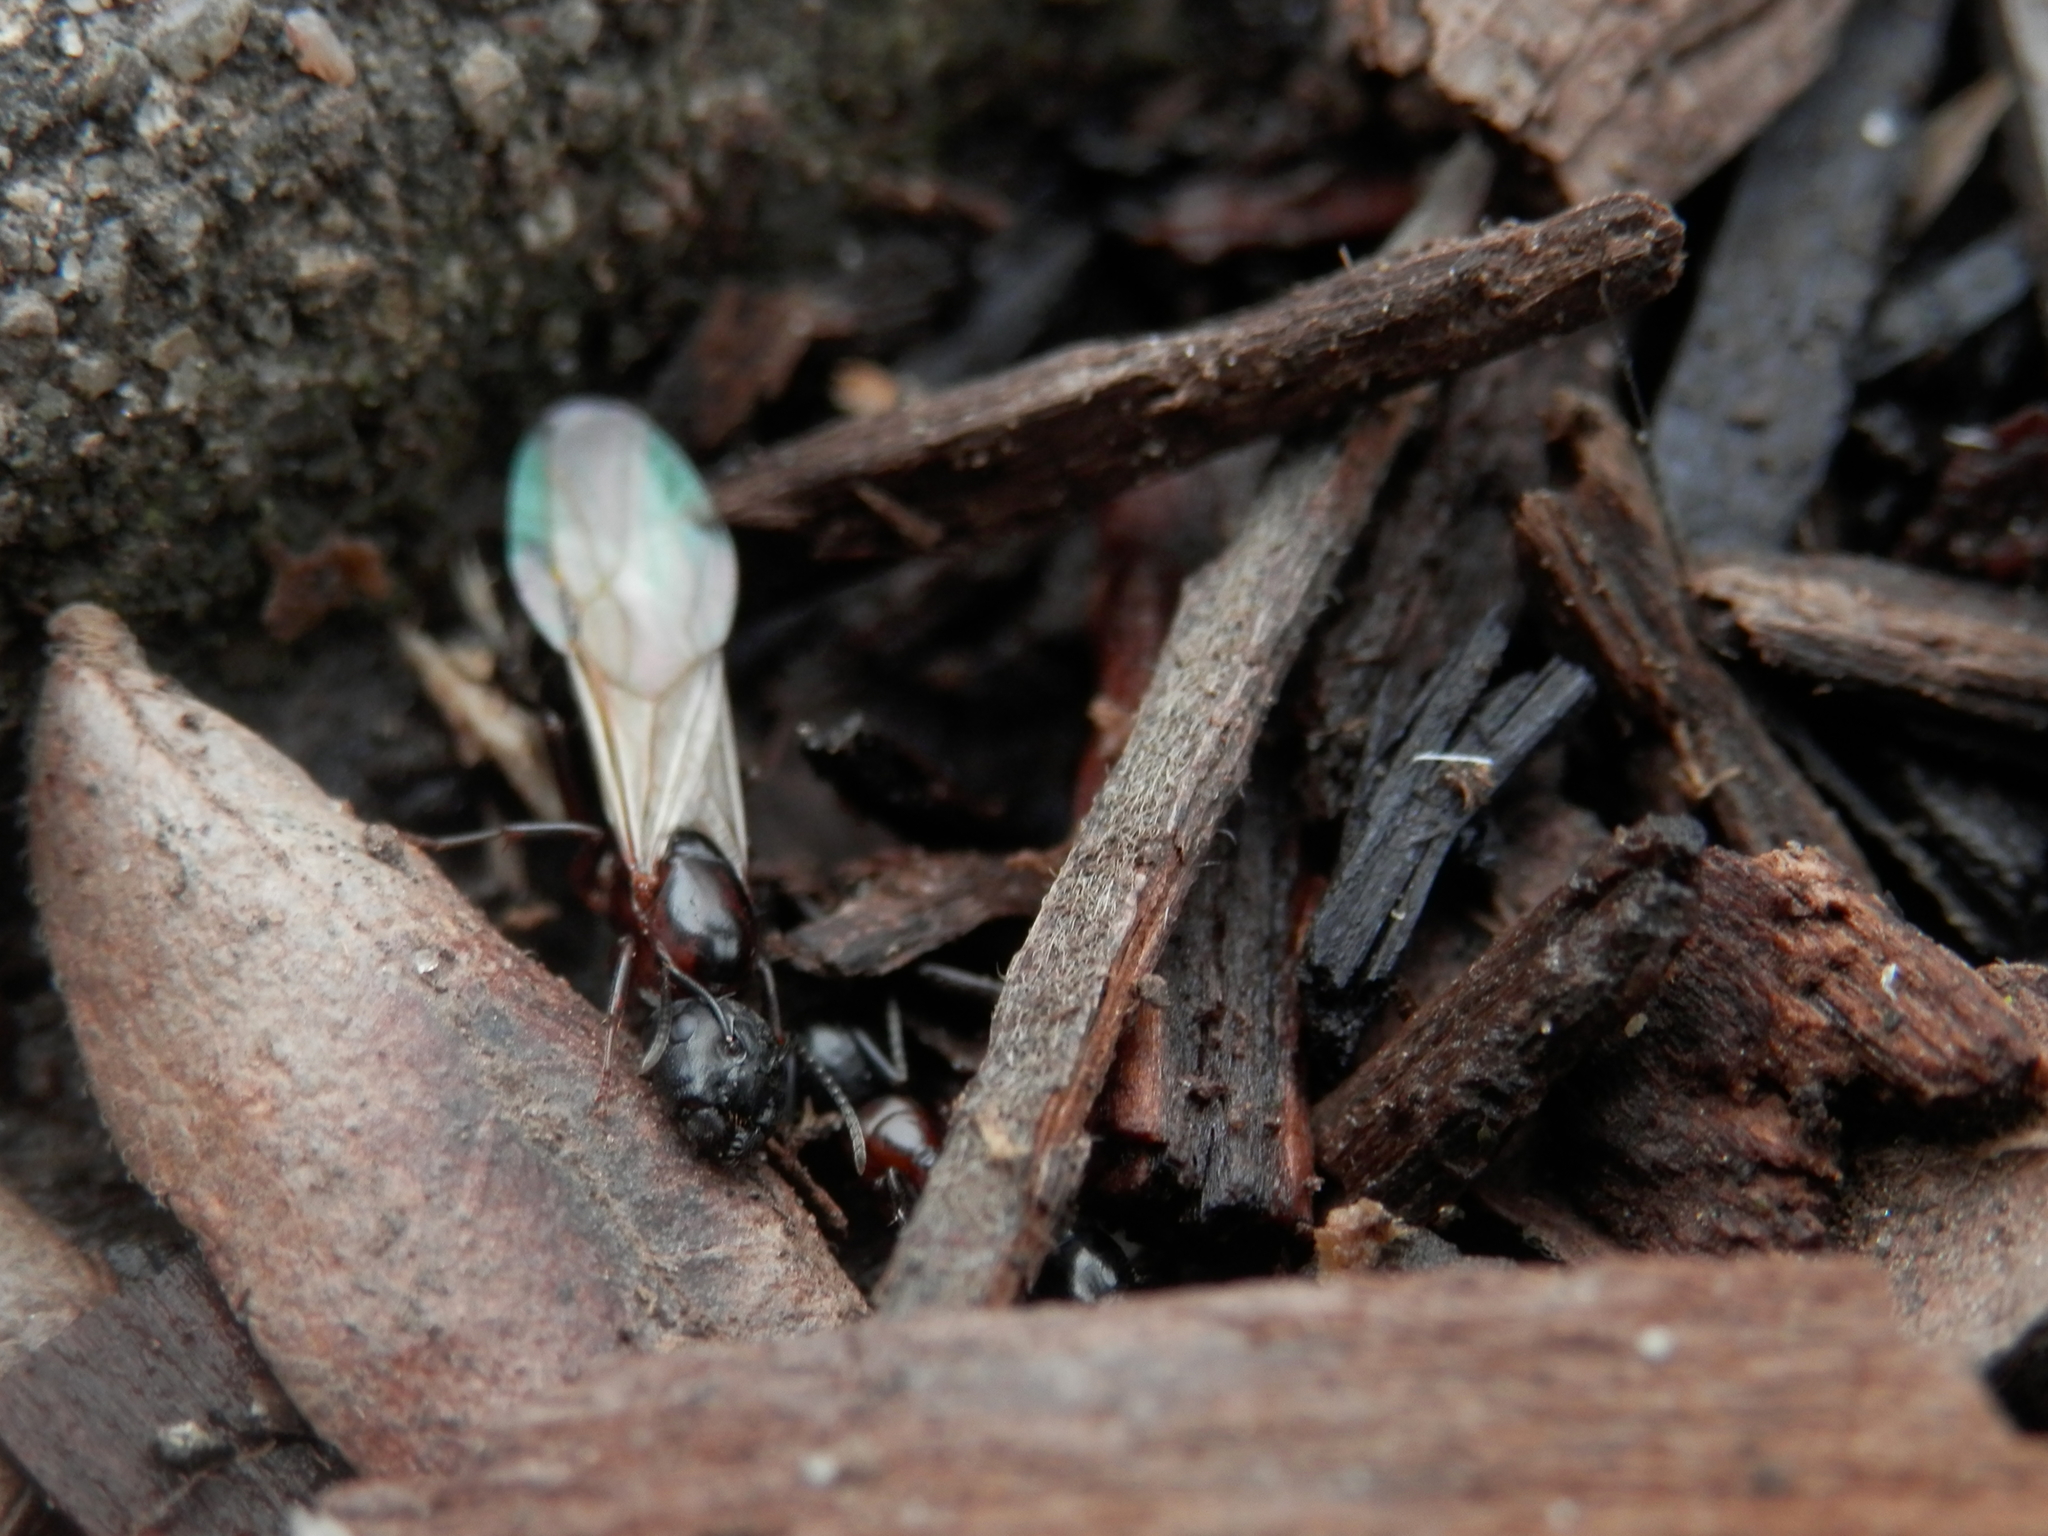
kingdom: Animalia
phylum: Arthropoda
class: Insecta
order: Hymenoptera
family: Formicidae
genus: Camponotus
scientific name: Camponotus novaeboracensis
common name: New york carpenter ant
